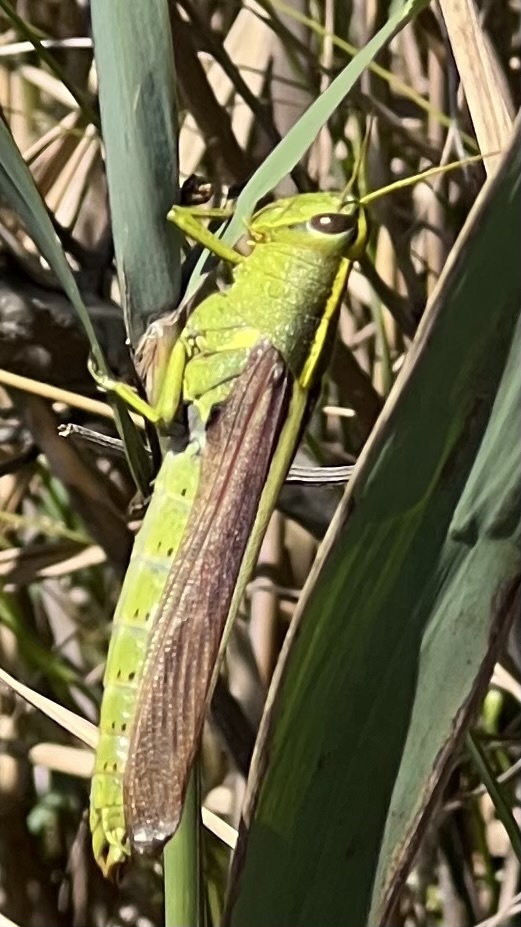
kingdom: Animalia
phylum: Arthropoda
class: Insecta
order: Orthoptera
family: Acrididae
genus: Schistocerca
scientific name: Schistocerca obscura
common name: Obscure bird grasshopper
